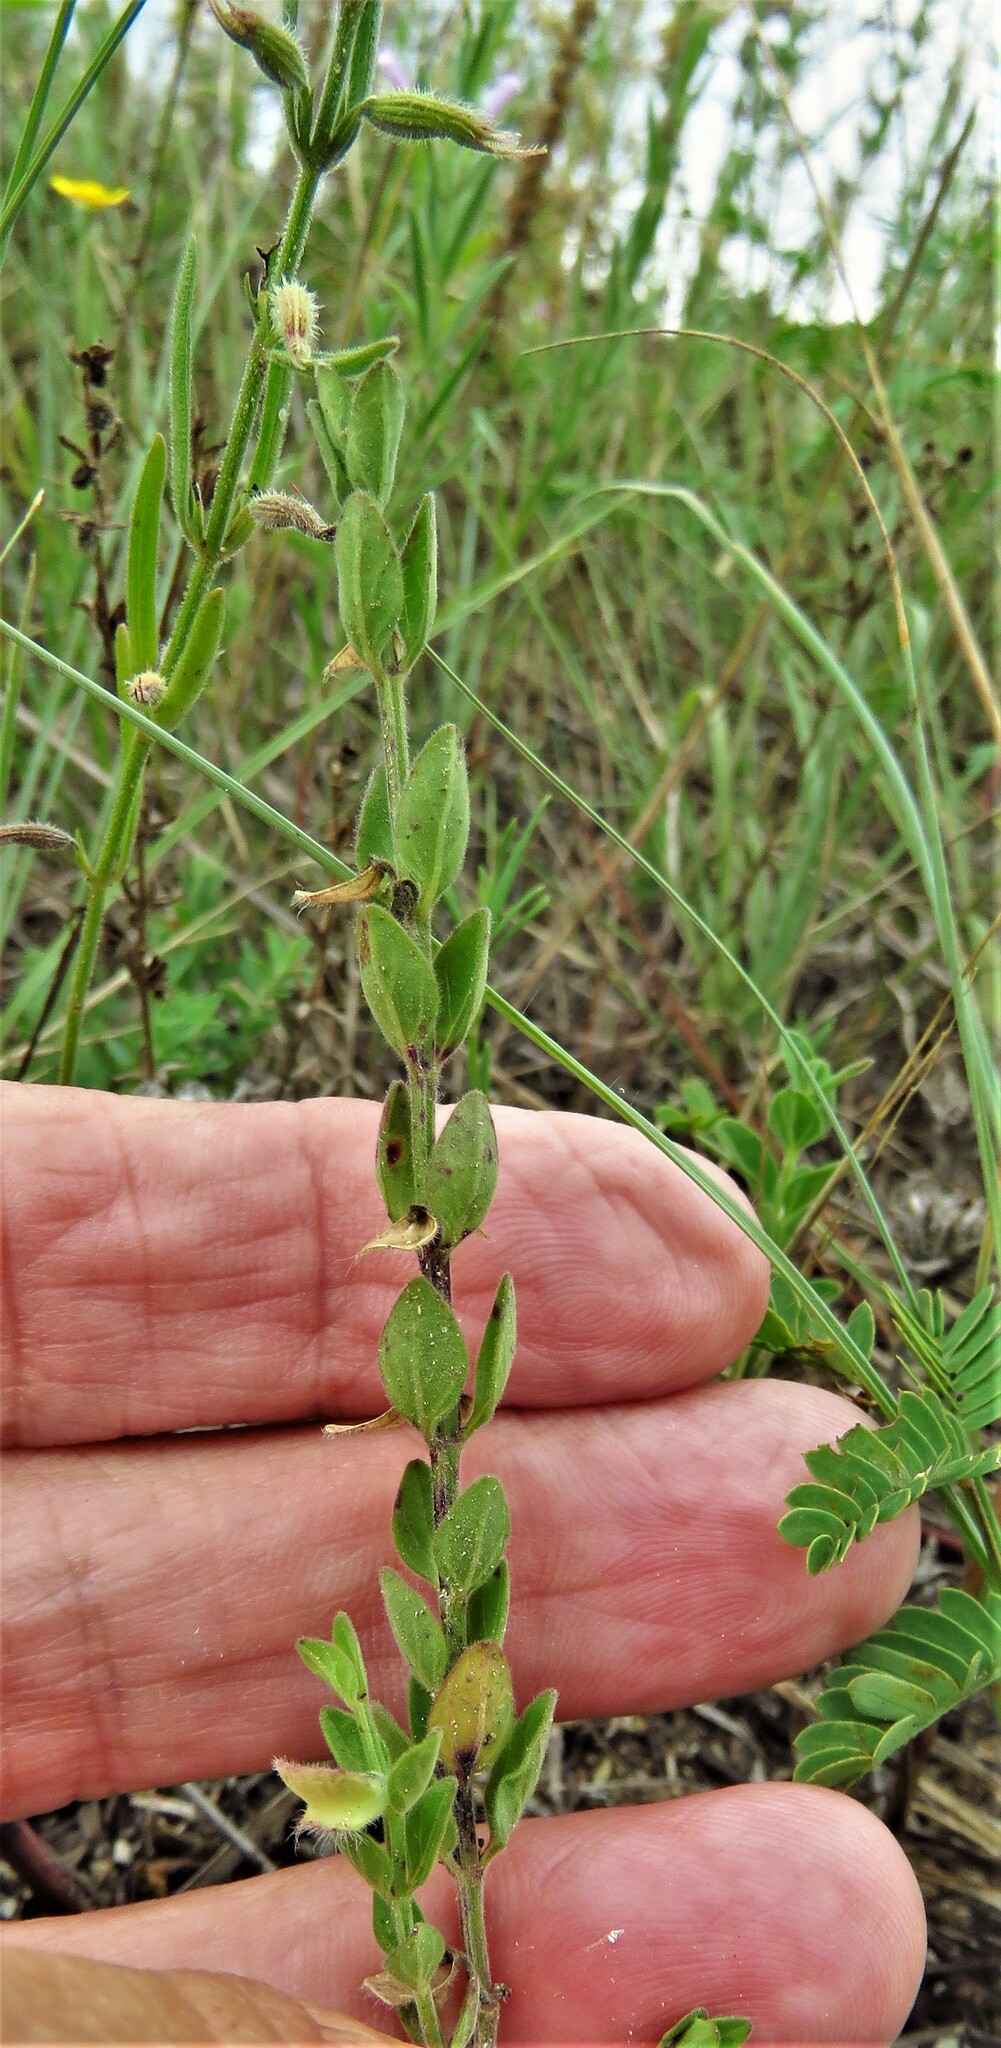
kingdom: Plantae
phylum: Tracheophyta
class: Magnoliopsida
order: Lamiales
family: Lamiaceae
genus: Scutellaria
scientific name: Scutellaria drummondii
